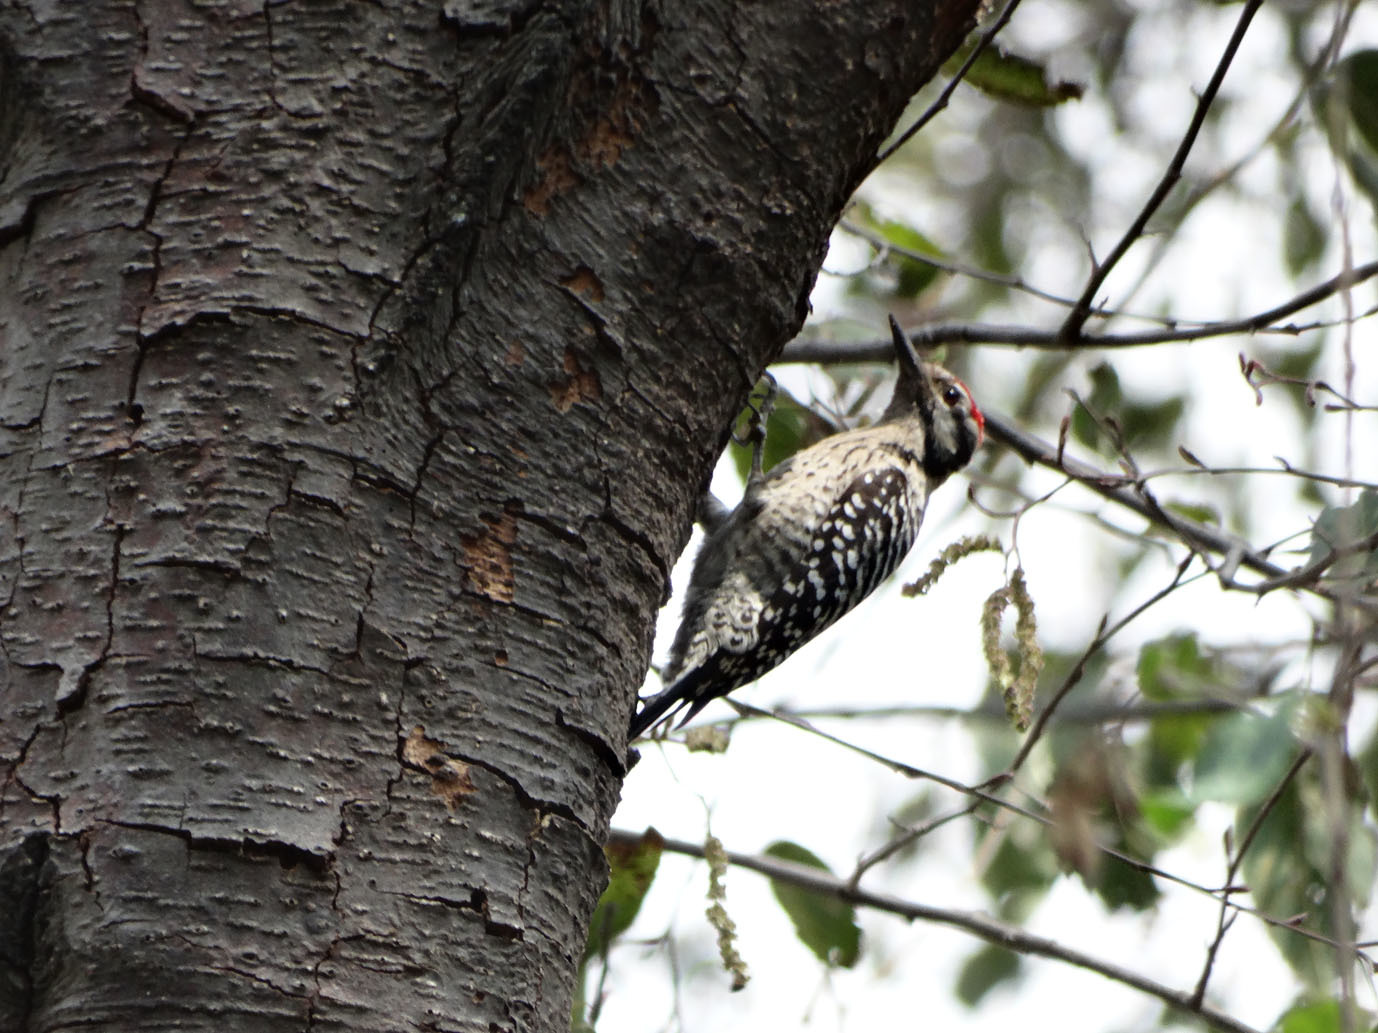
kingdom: Animalia
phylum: Chordata
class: Aves
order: Piciformes
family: Picidae
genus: Dryobates
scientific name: Dryobates scalaris
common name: Ladder-backed woodpecker
